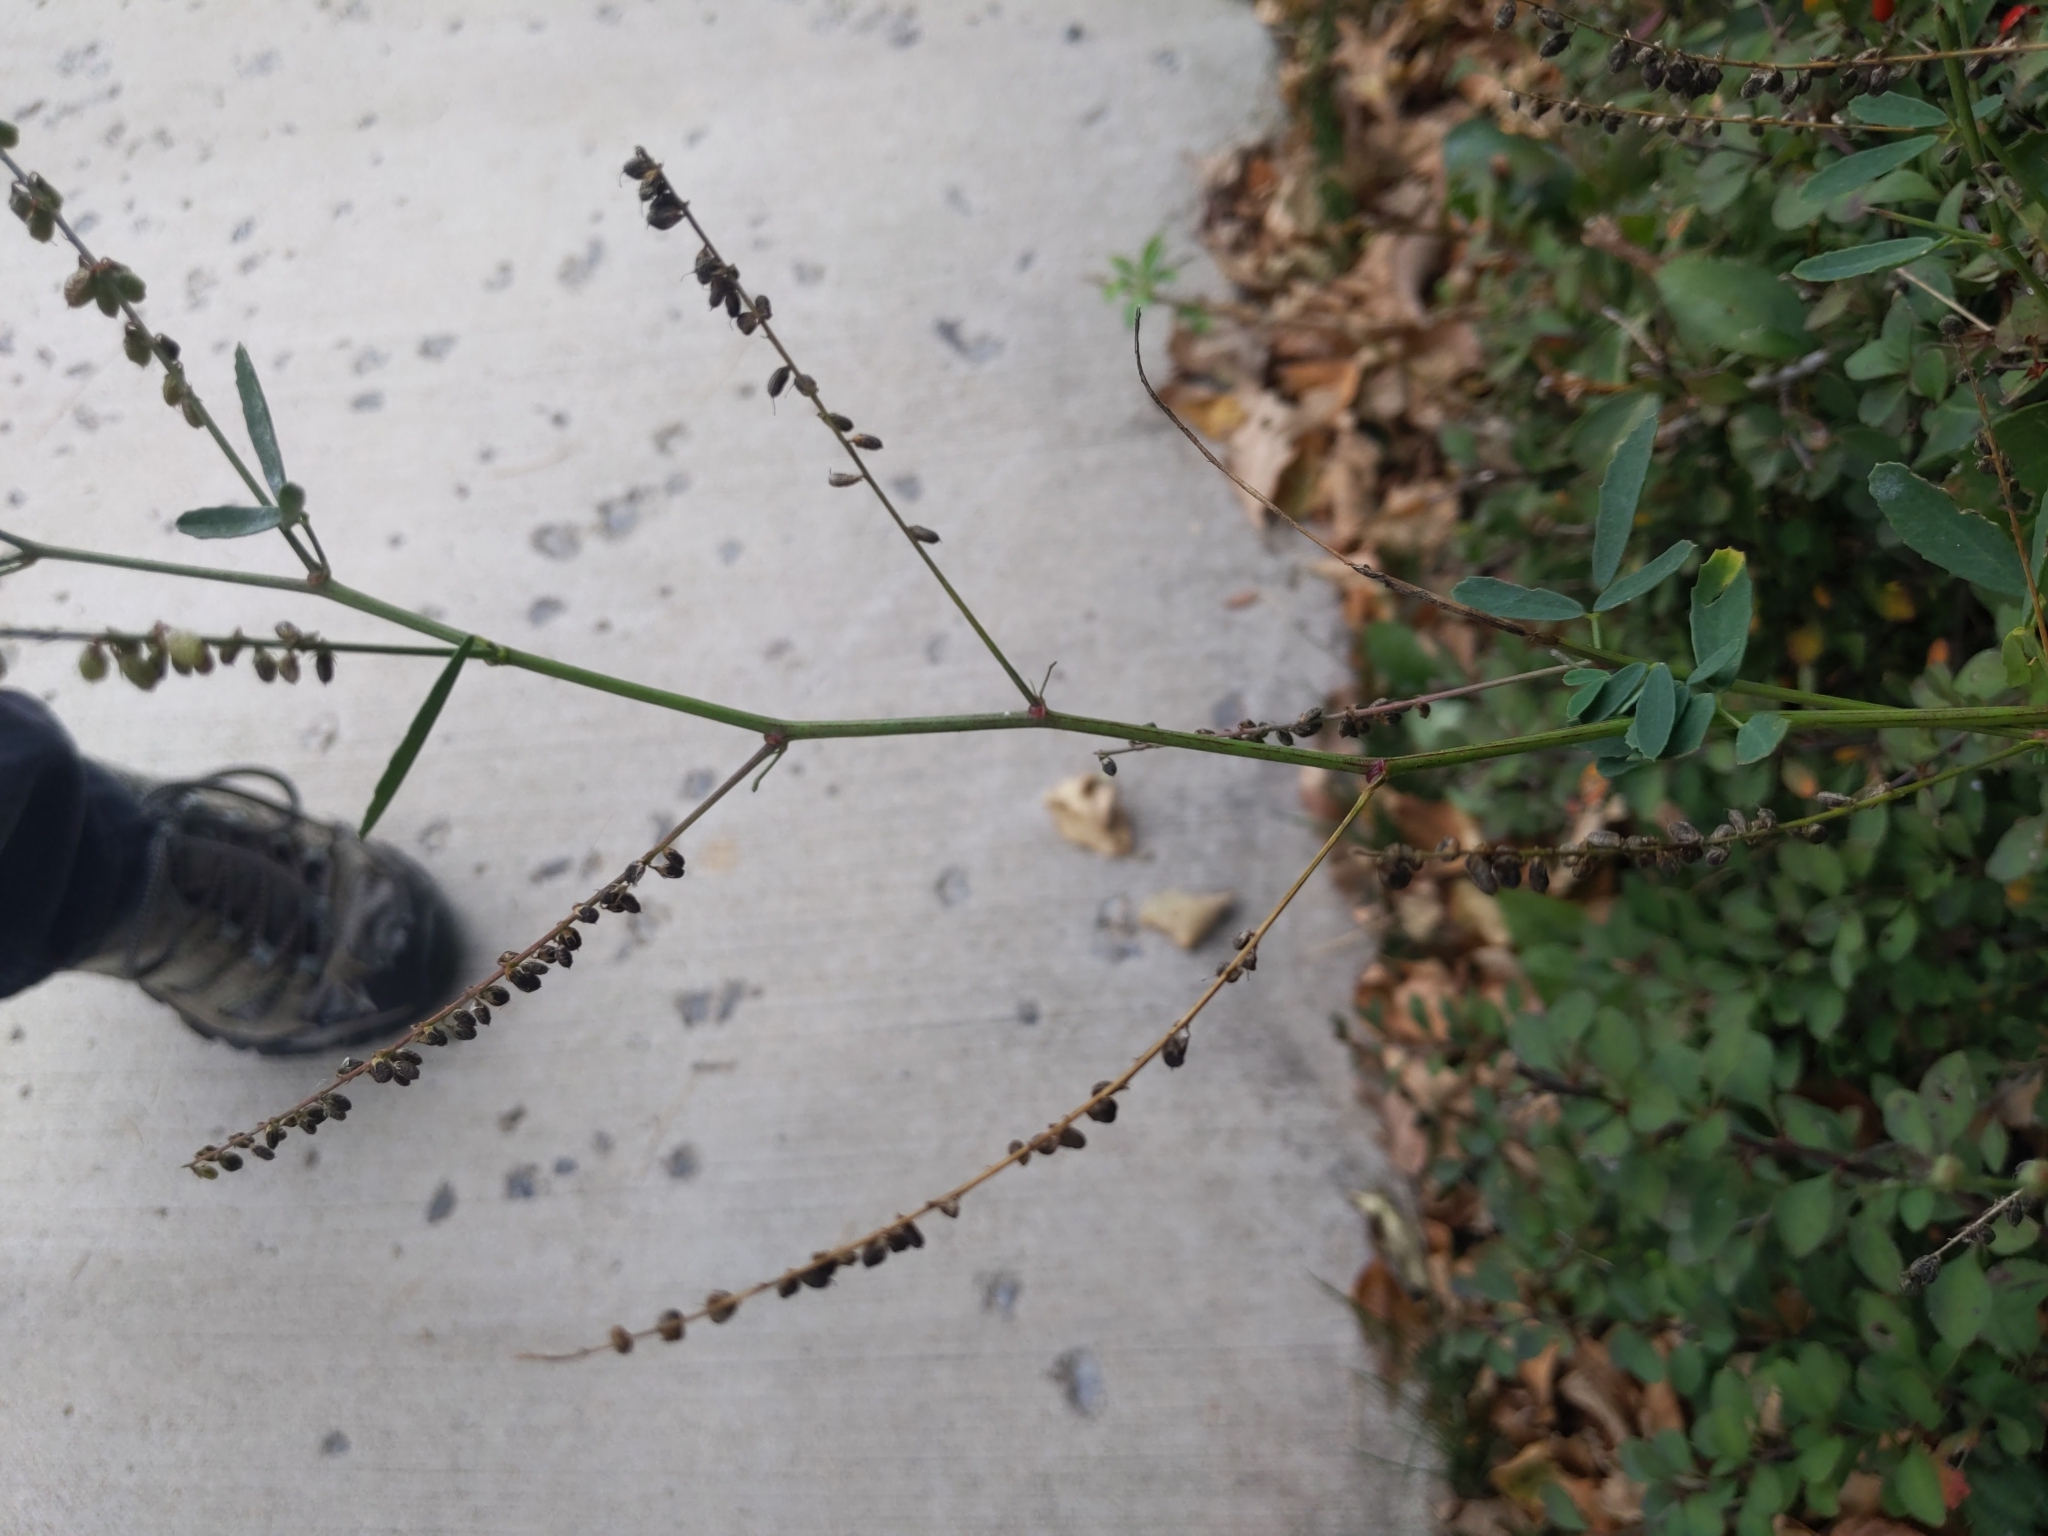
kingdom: Plantae
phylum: Tracheophyta
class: Magnoliopsida
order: Fabales
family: Fabaceae
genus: Melilotus
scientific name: Melilotus albus
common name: White melilot
